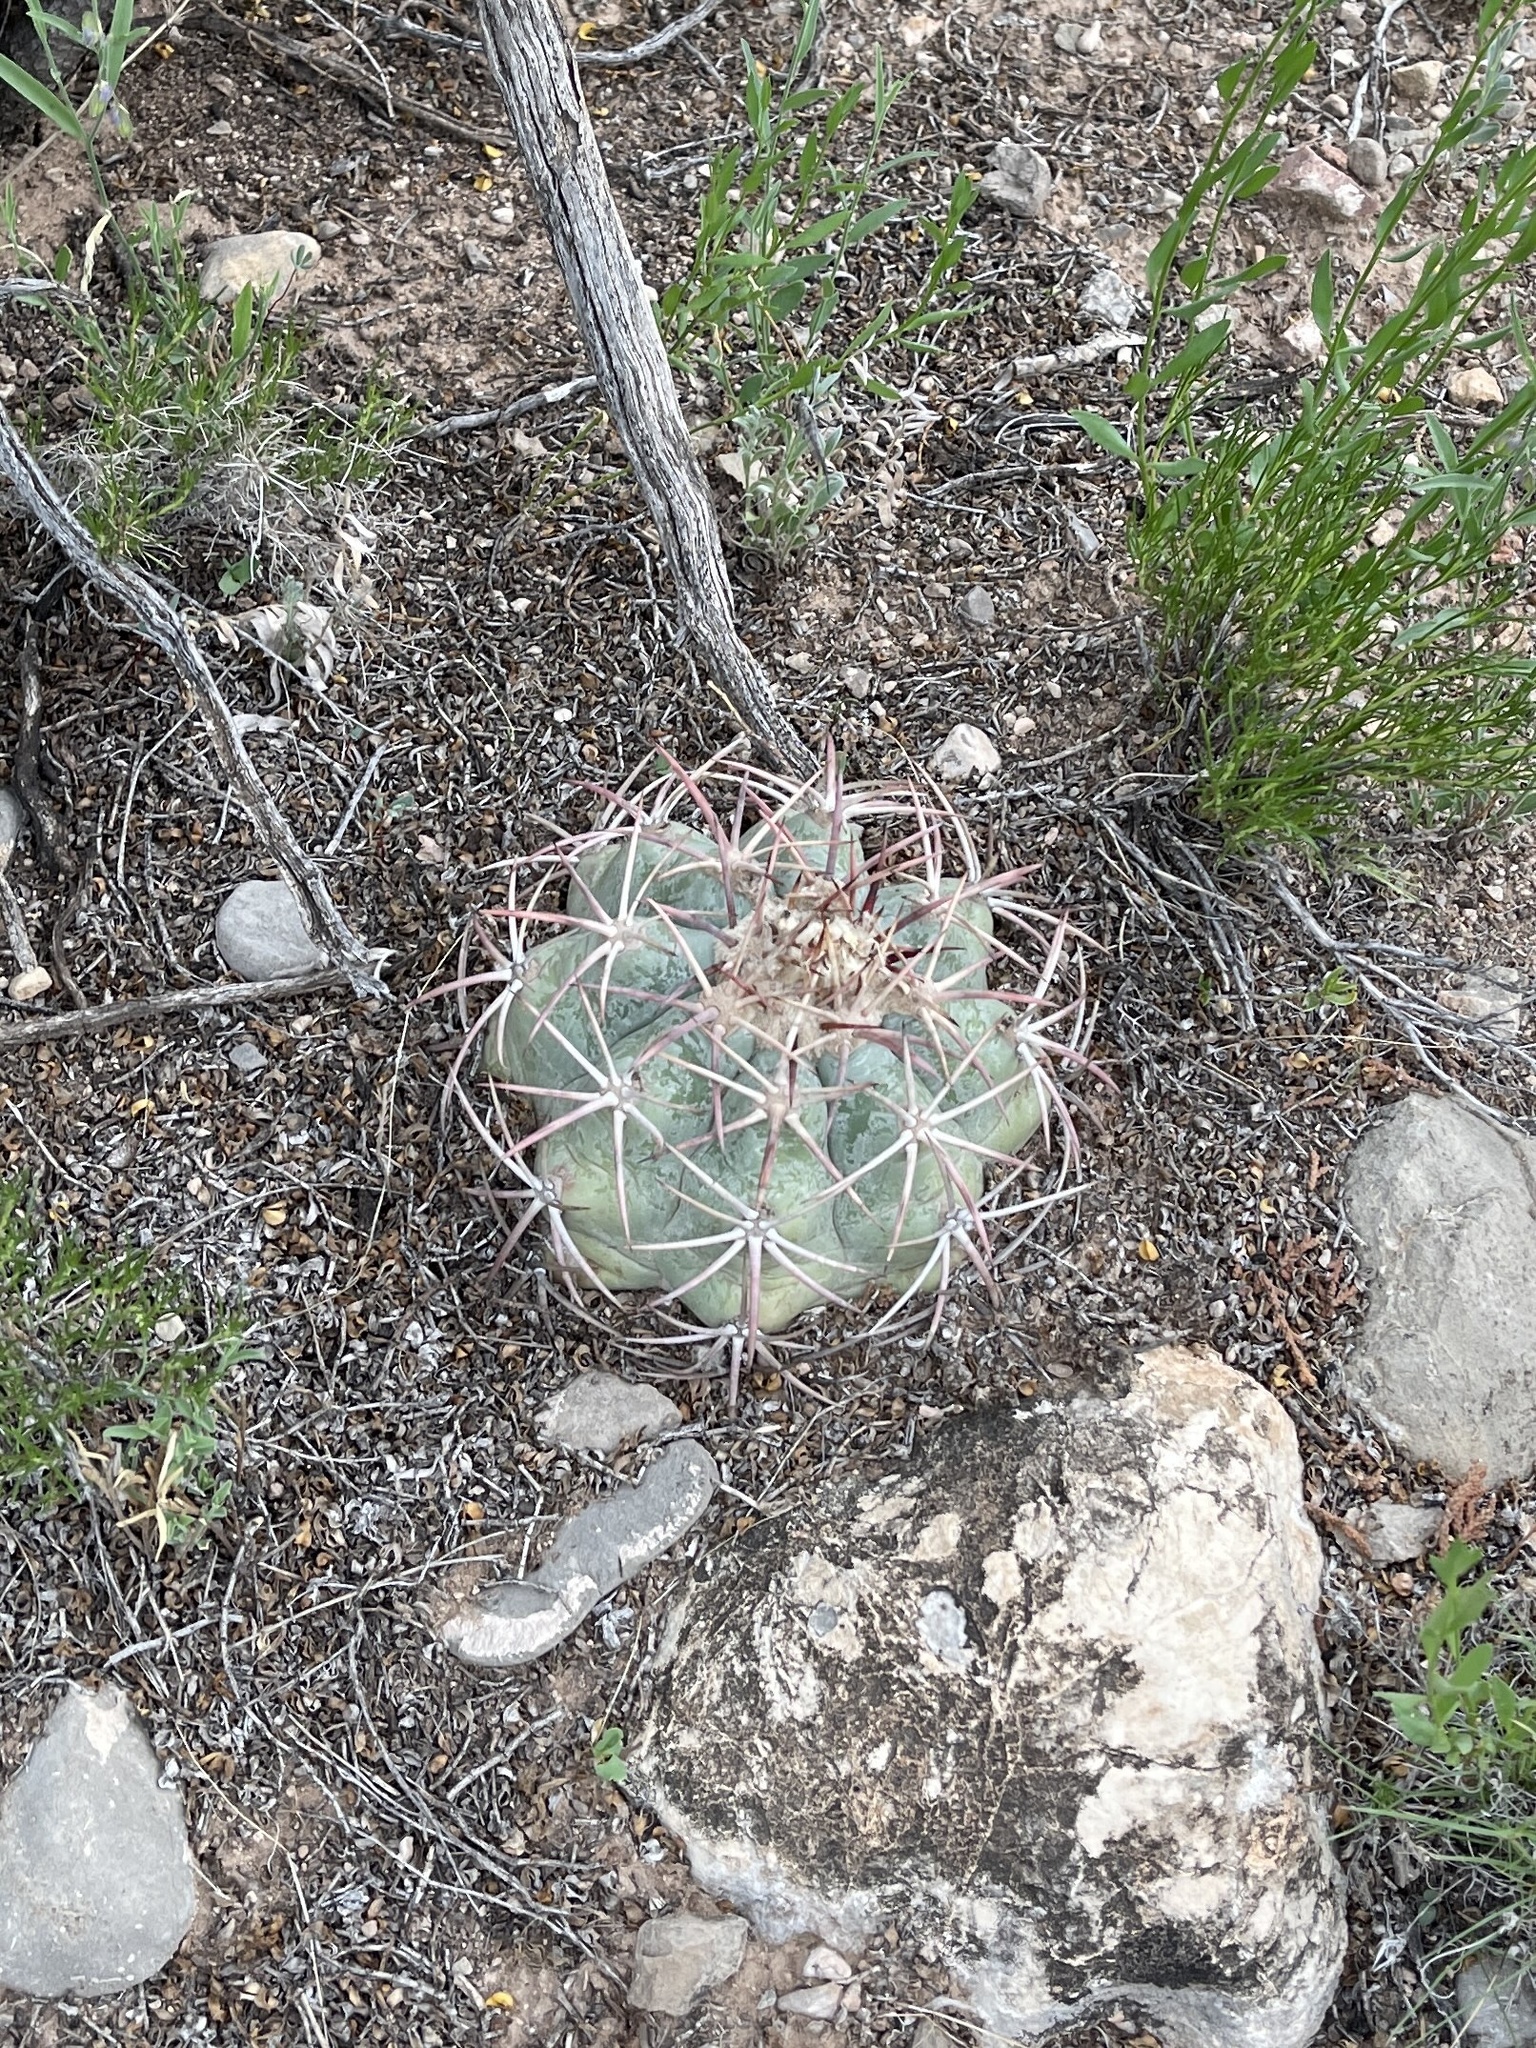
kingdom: Plantae
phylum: Tracheophyta
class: Magnoliopsida
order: Caryophyllales
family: Cactaceae
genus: Echinocactus
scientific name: Echinocactus horizonthalonius
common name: Devilshead
